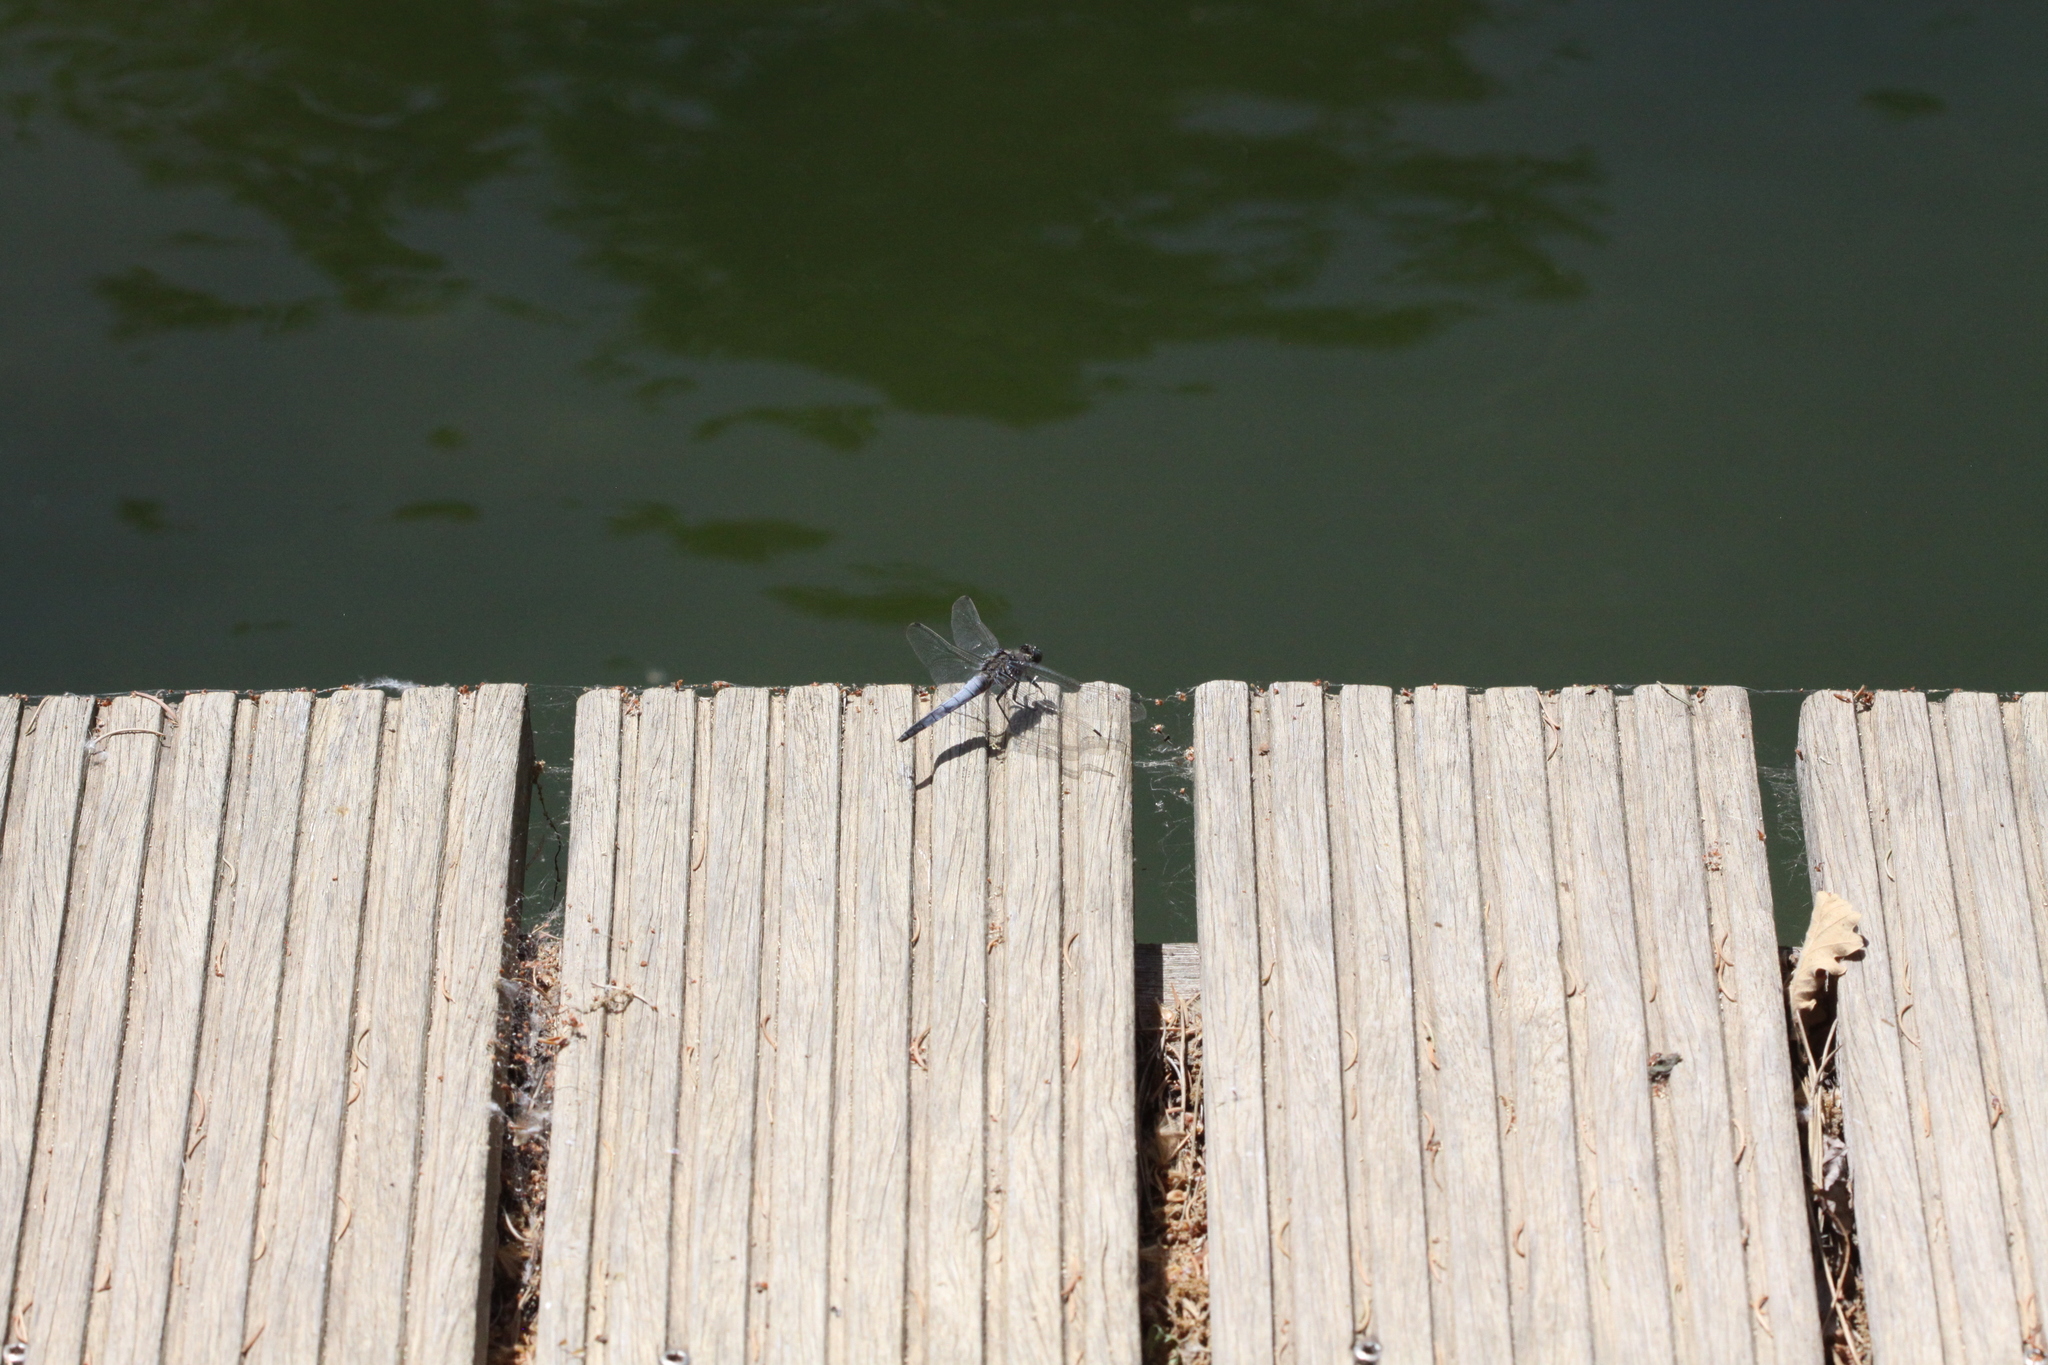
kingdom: Animalia
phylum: Arthropoda
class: Insecta
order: Odonata
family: Libellulidae
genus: Orthetrum
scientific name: Orthetrum cancellatum
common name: Black-tailed skimmer
